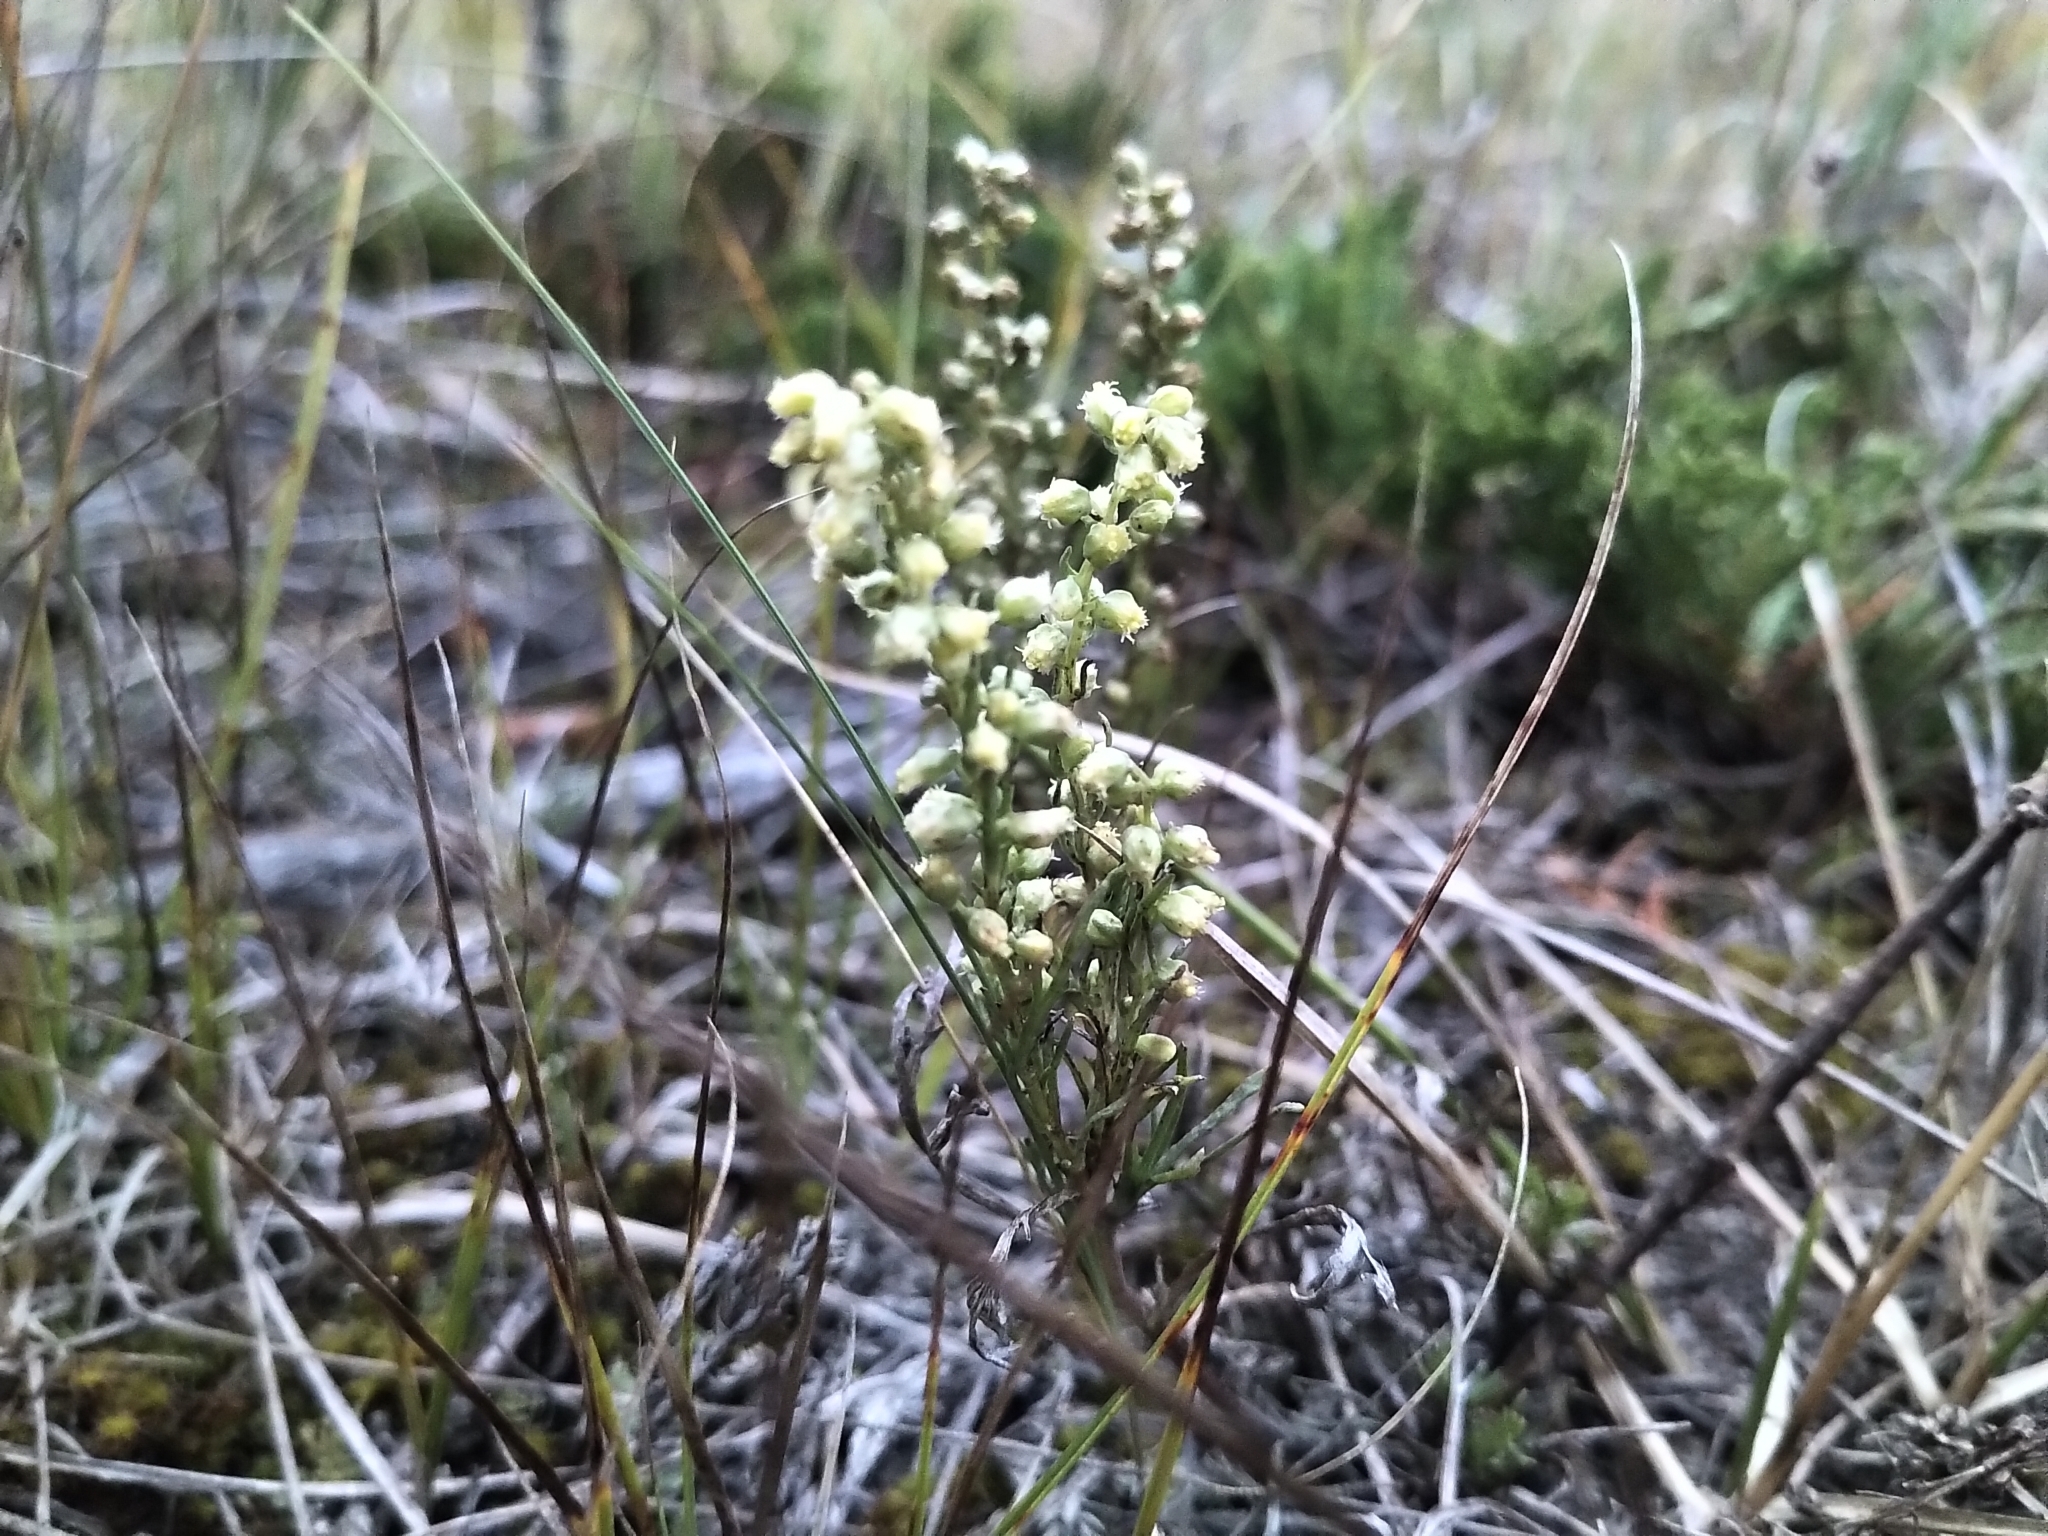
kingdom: Plantae
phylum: Tracheophyta
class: Magnoliopsida
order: Asterales
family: Asteraceae
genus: Artemisia
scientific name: Artemisia frigida
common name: Prairie sagewort
